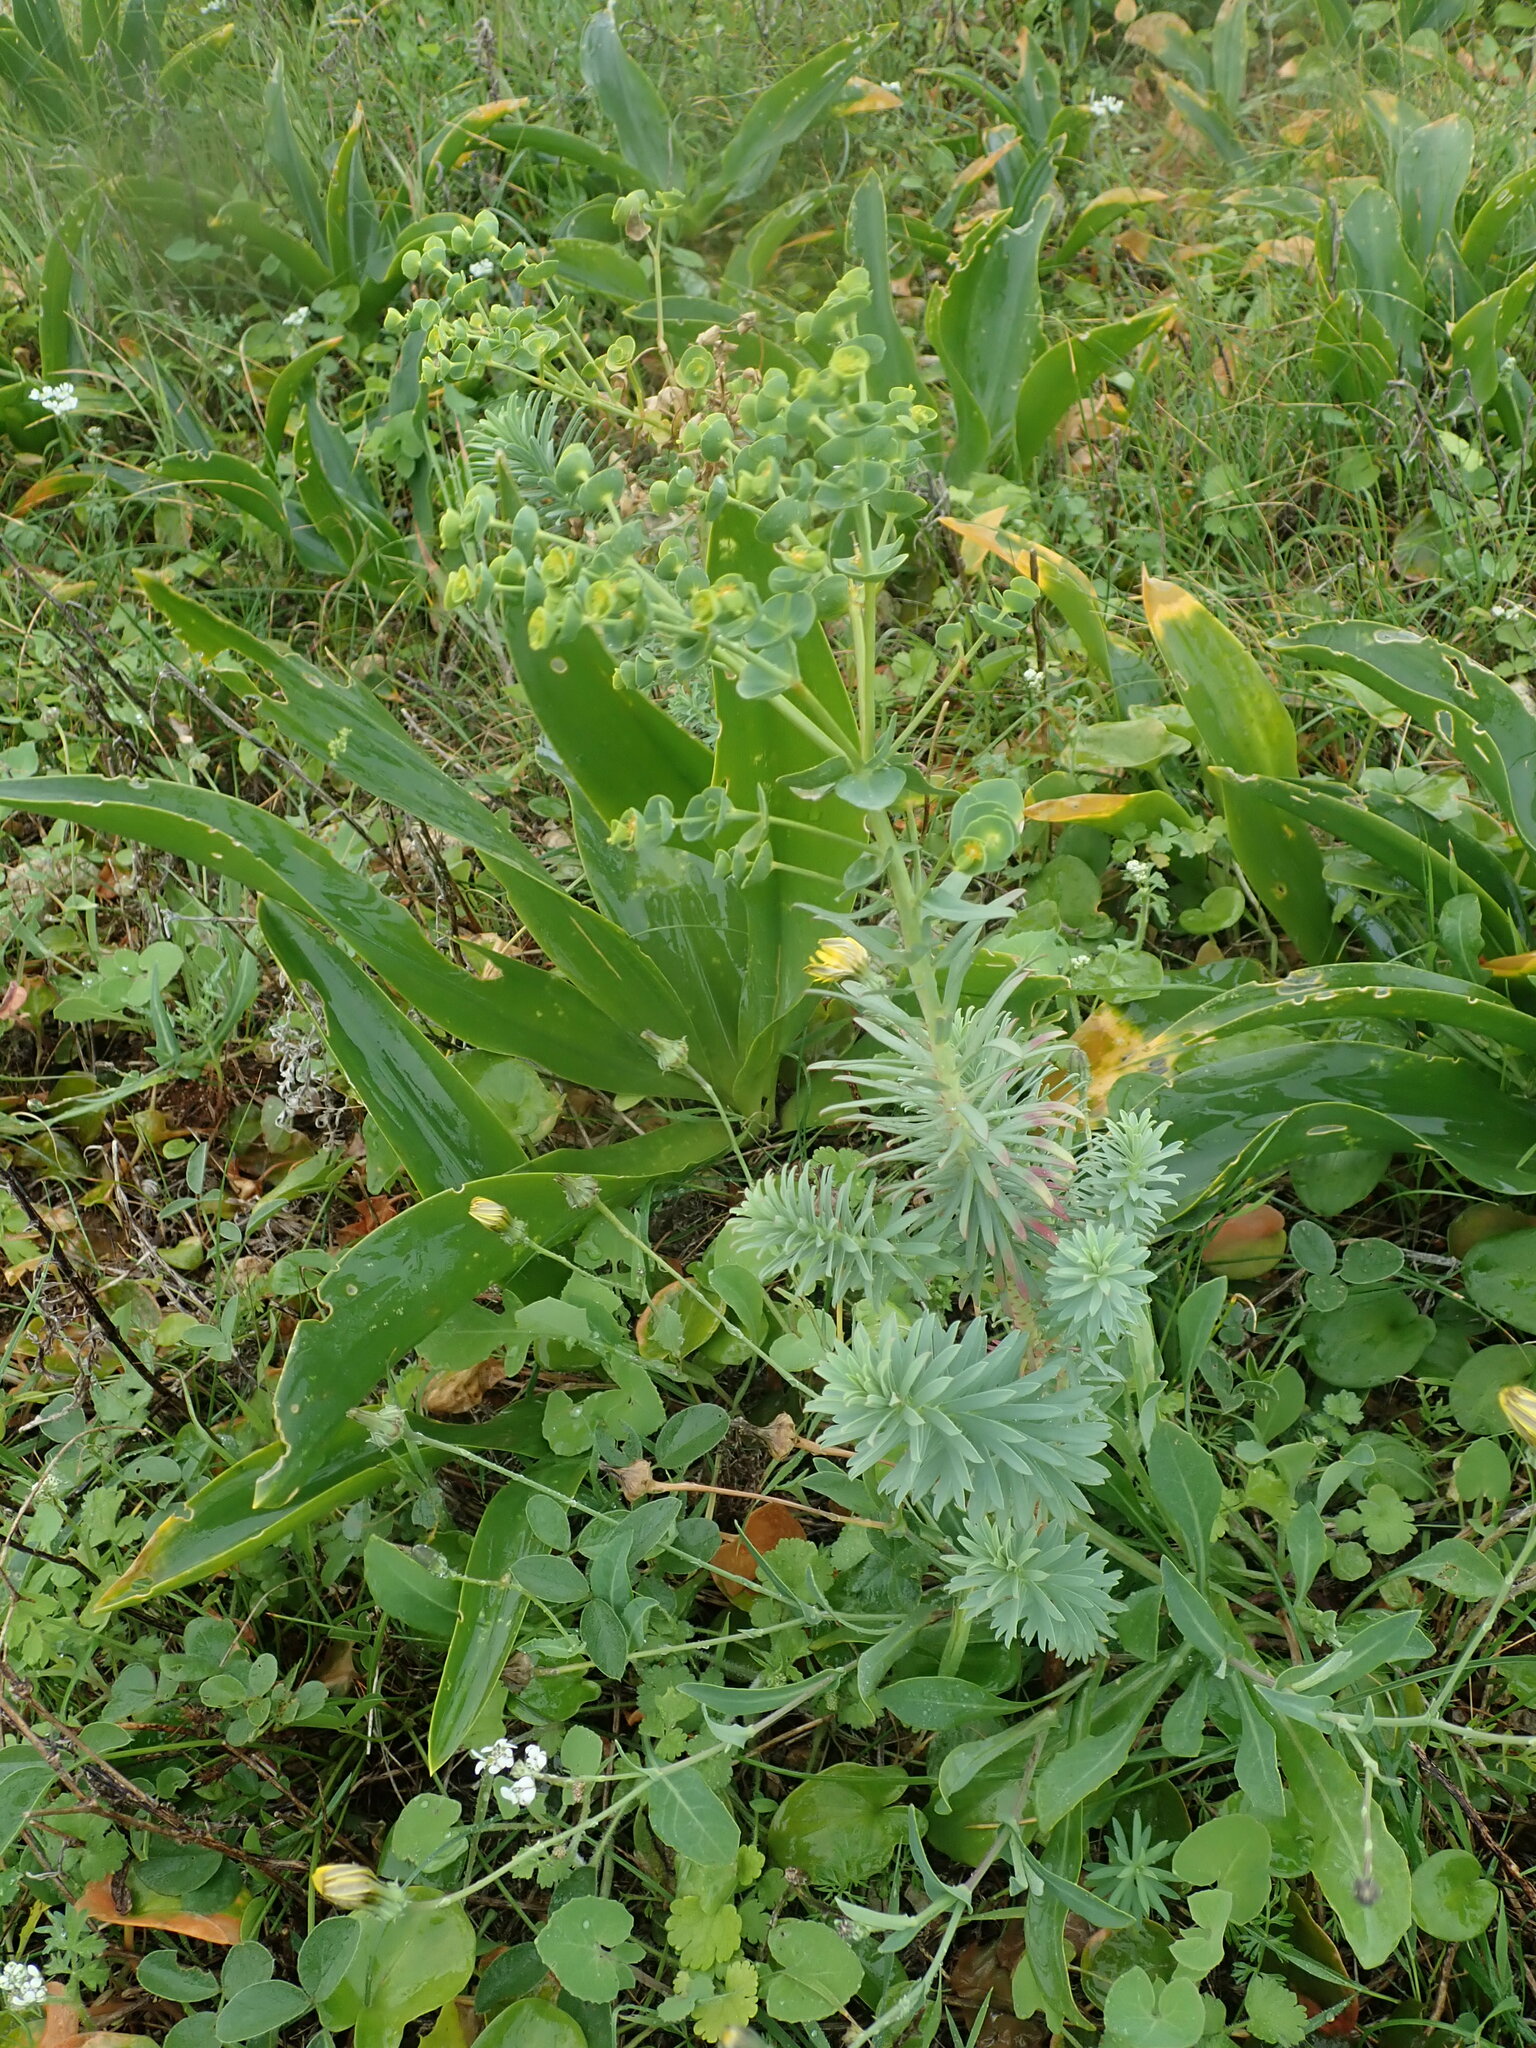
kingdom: Plantae
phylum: Tracheophyta
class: Magnoliopsida
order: Malpighiales
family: Euphorbiaceae
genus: Euphorbia
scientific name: Euphorbia segetalis
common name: Corn spurge
